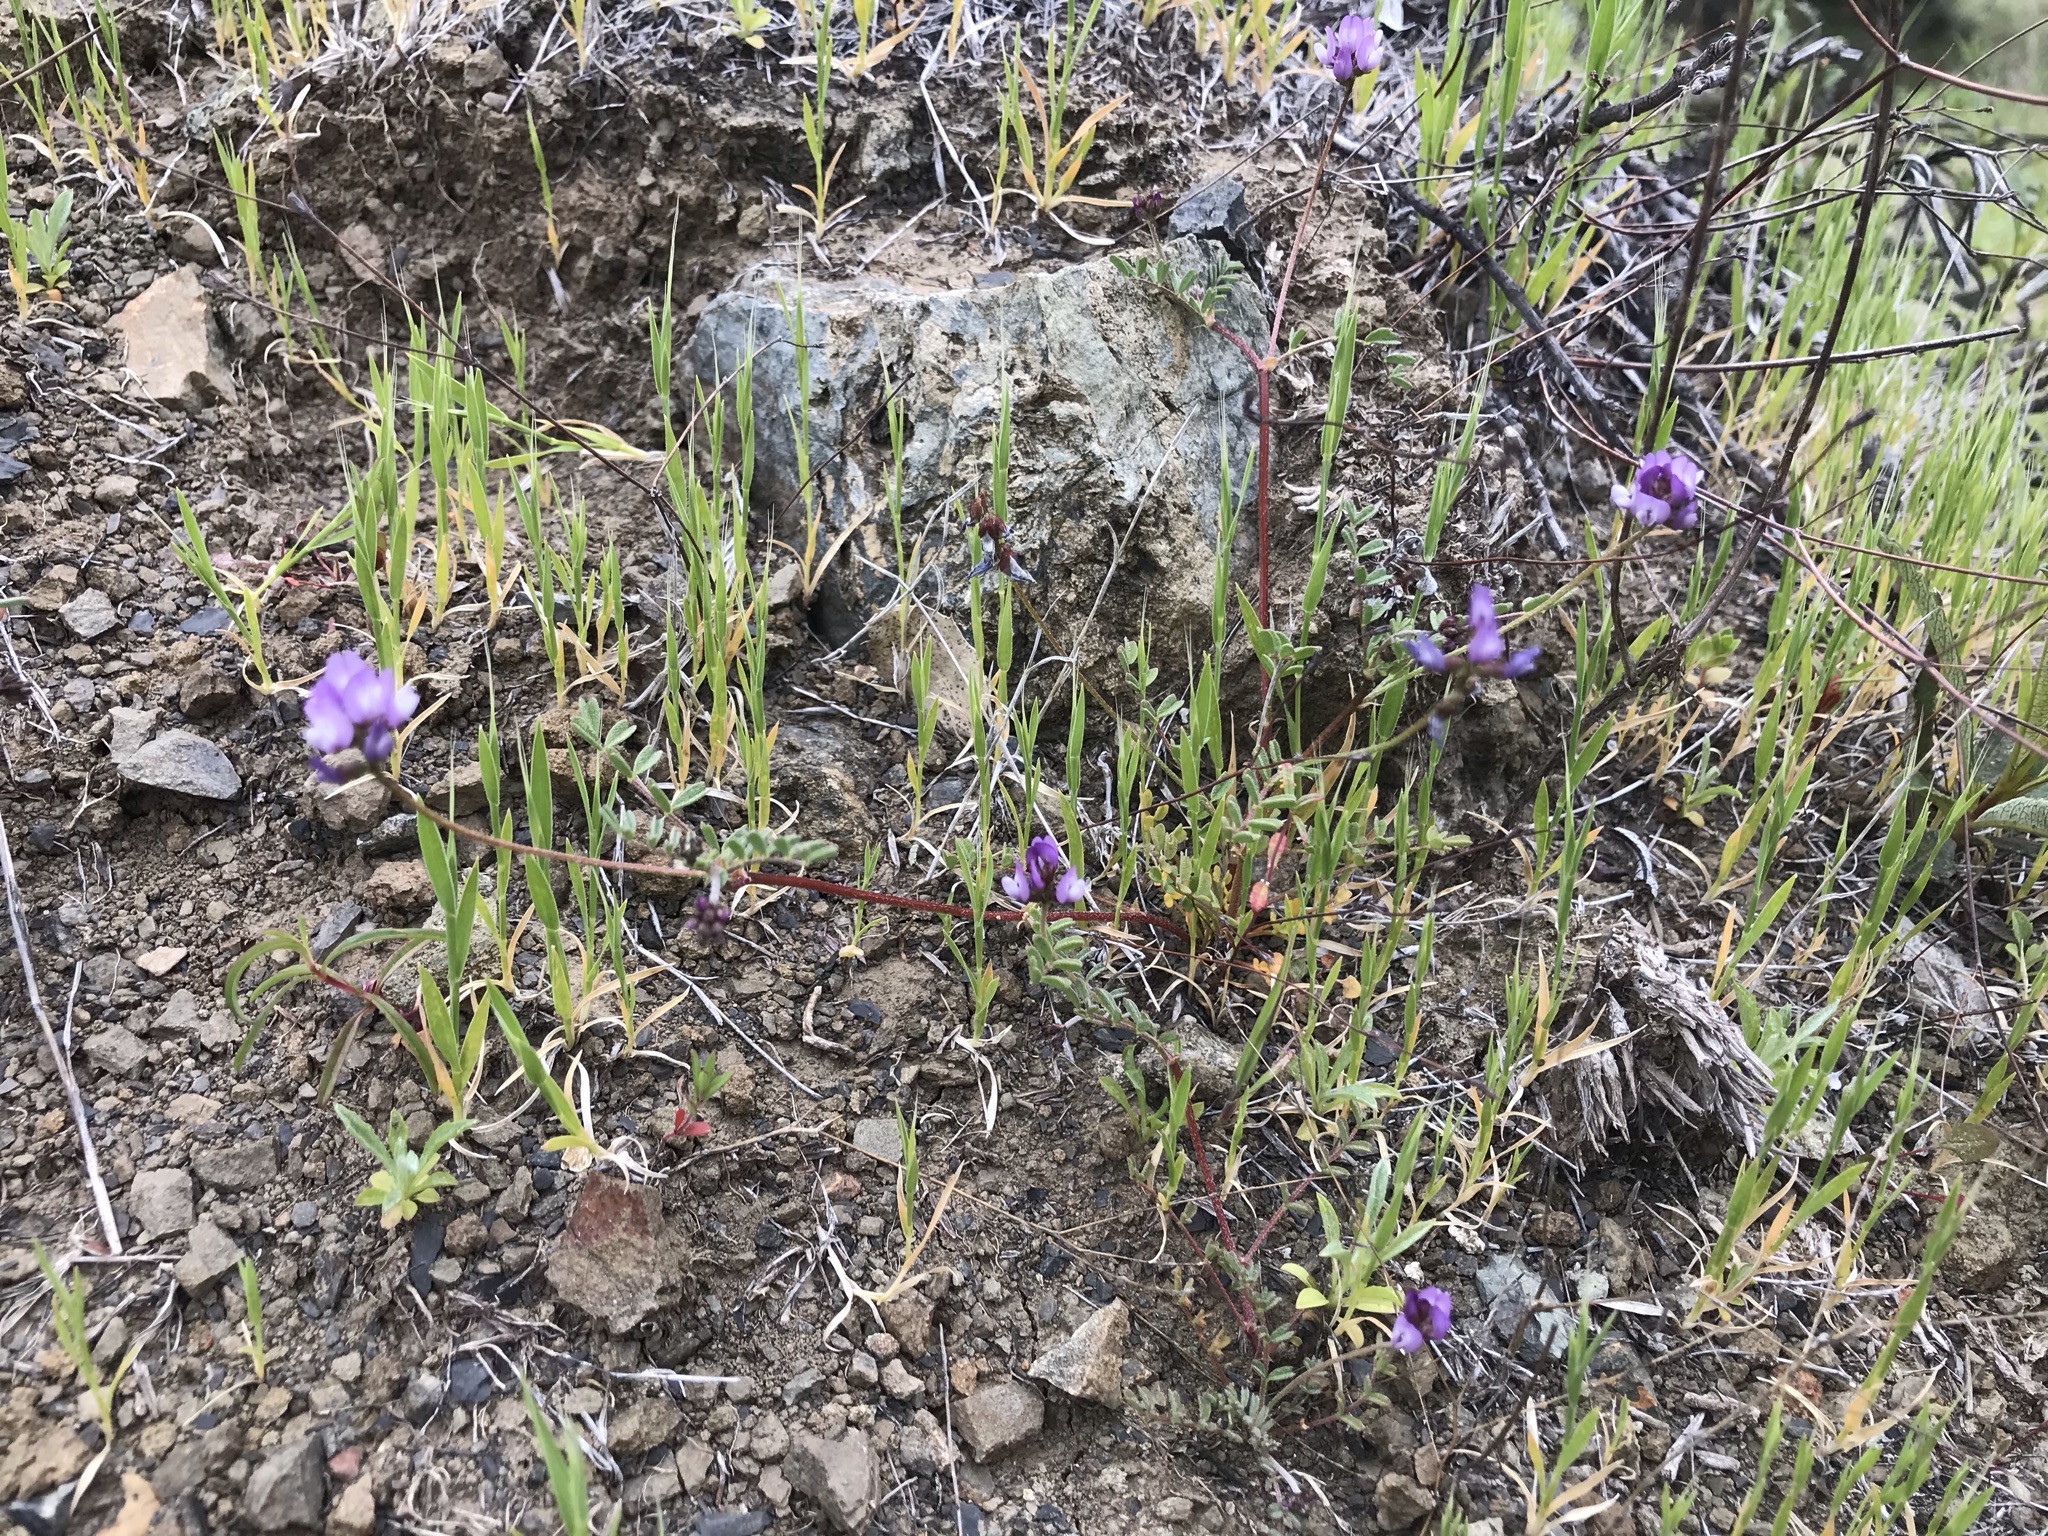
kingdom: Plantae
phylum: Tracheophyta
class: Magnoliopsida
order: Fabales
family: Fabaceae
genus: Astragalus
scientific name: Astragalus gambelianus
